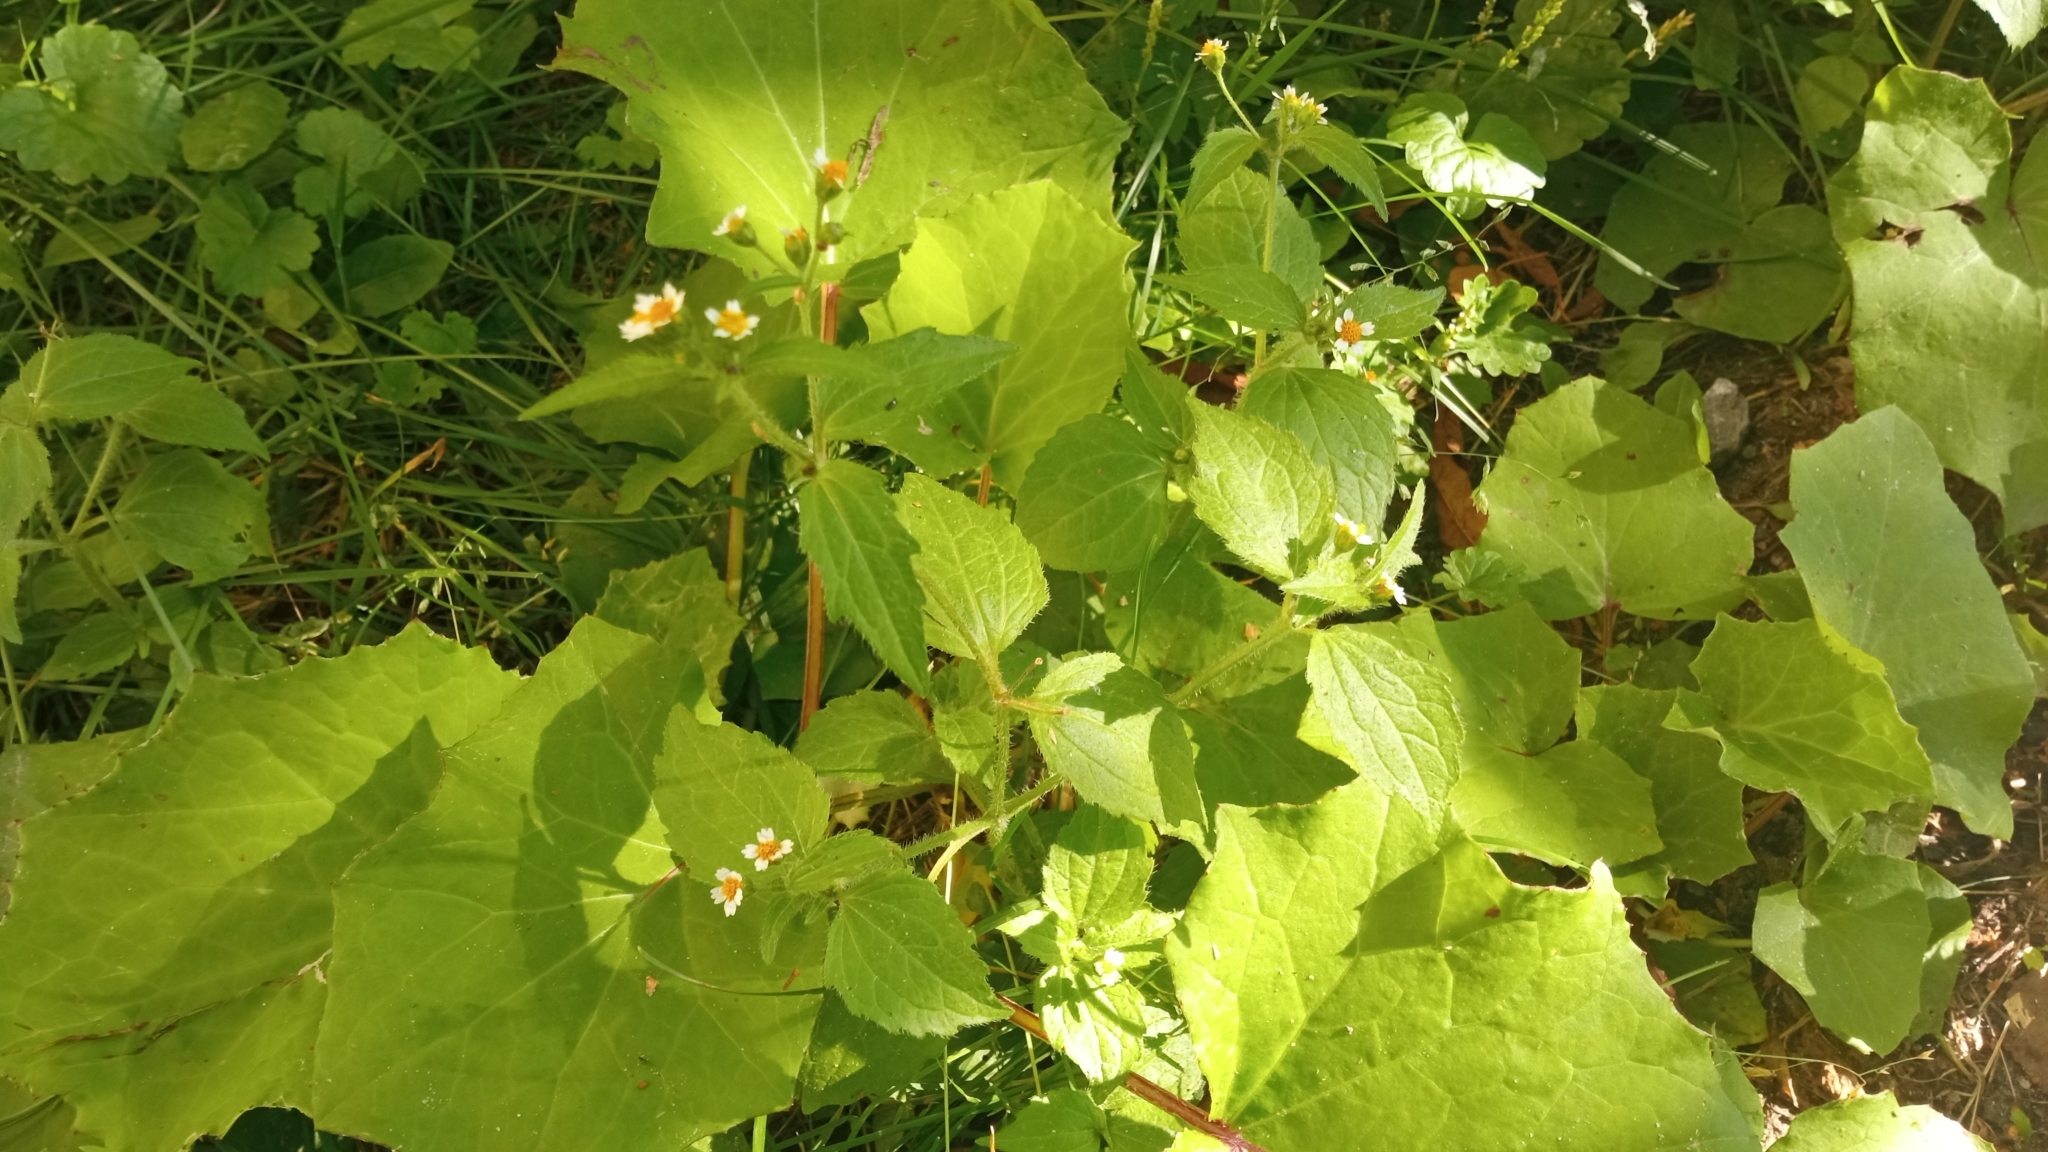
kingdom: Plantae
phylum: Tracheophyta
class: Magnoliopsida
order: Asterales
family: Asteraceae
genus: Galinsoga
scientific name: Galinsoga quadriradiata
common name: Shaggy soldier
